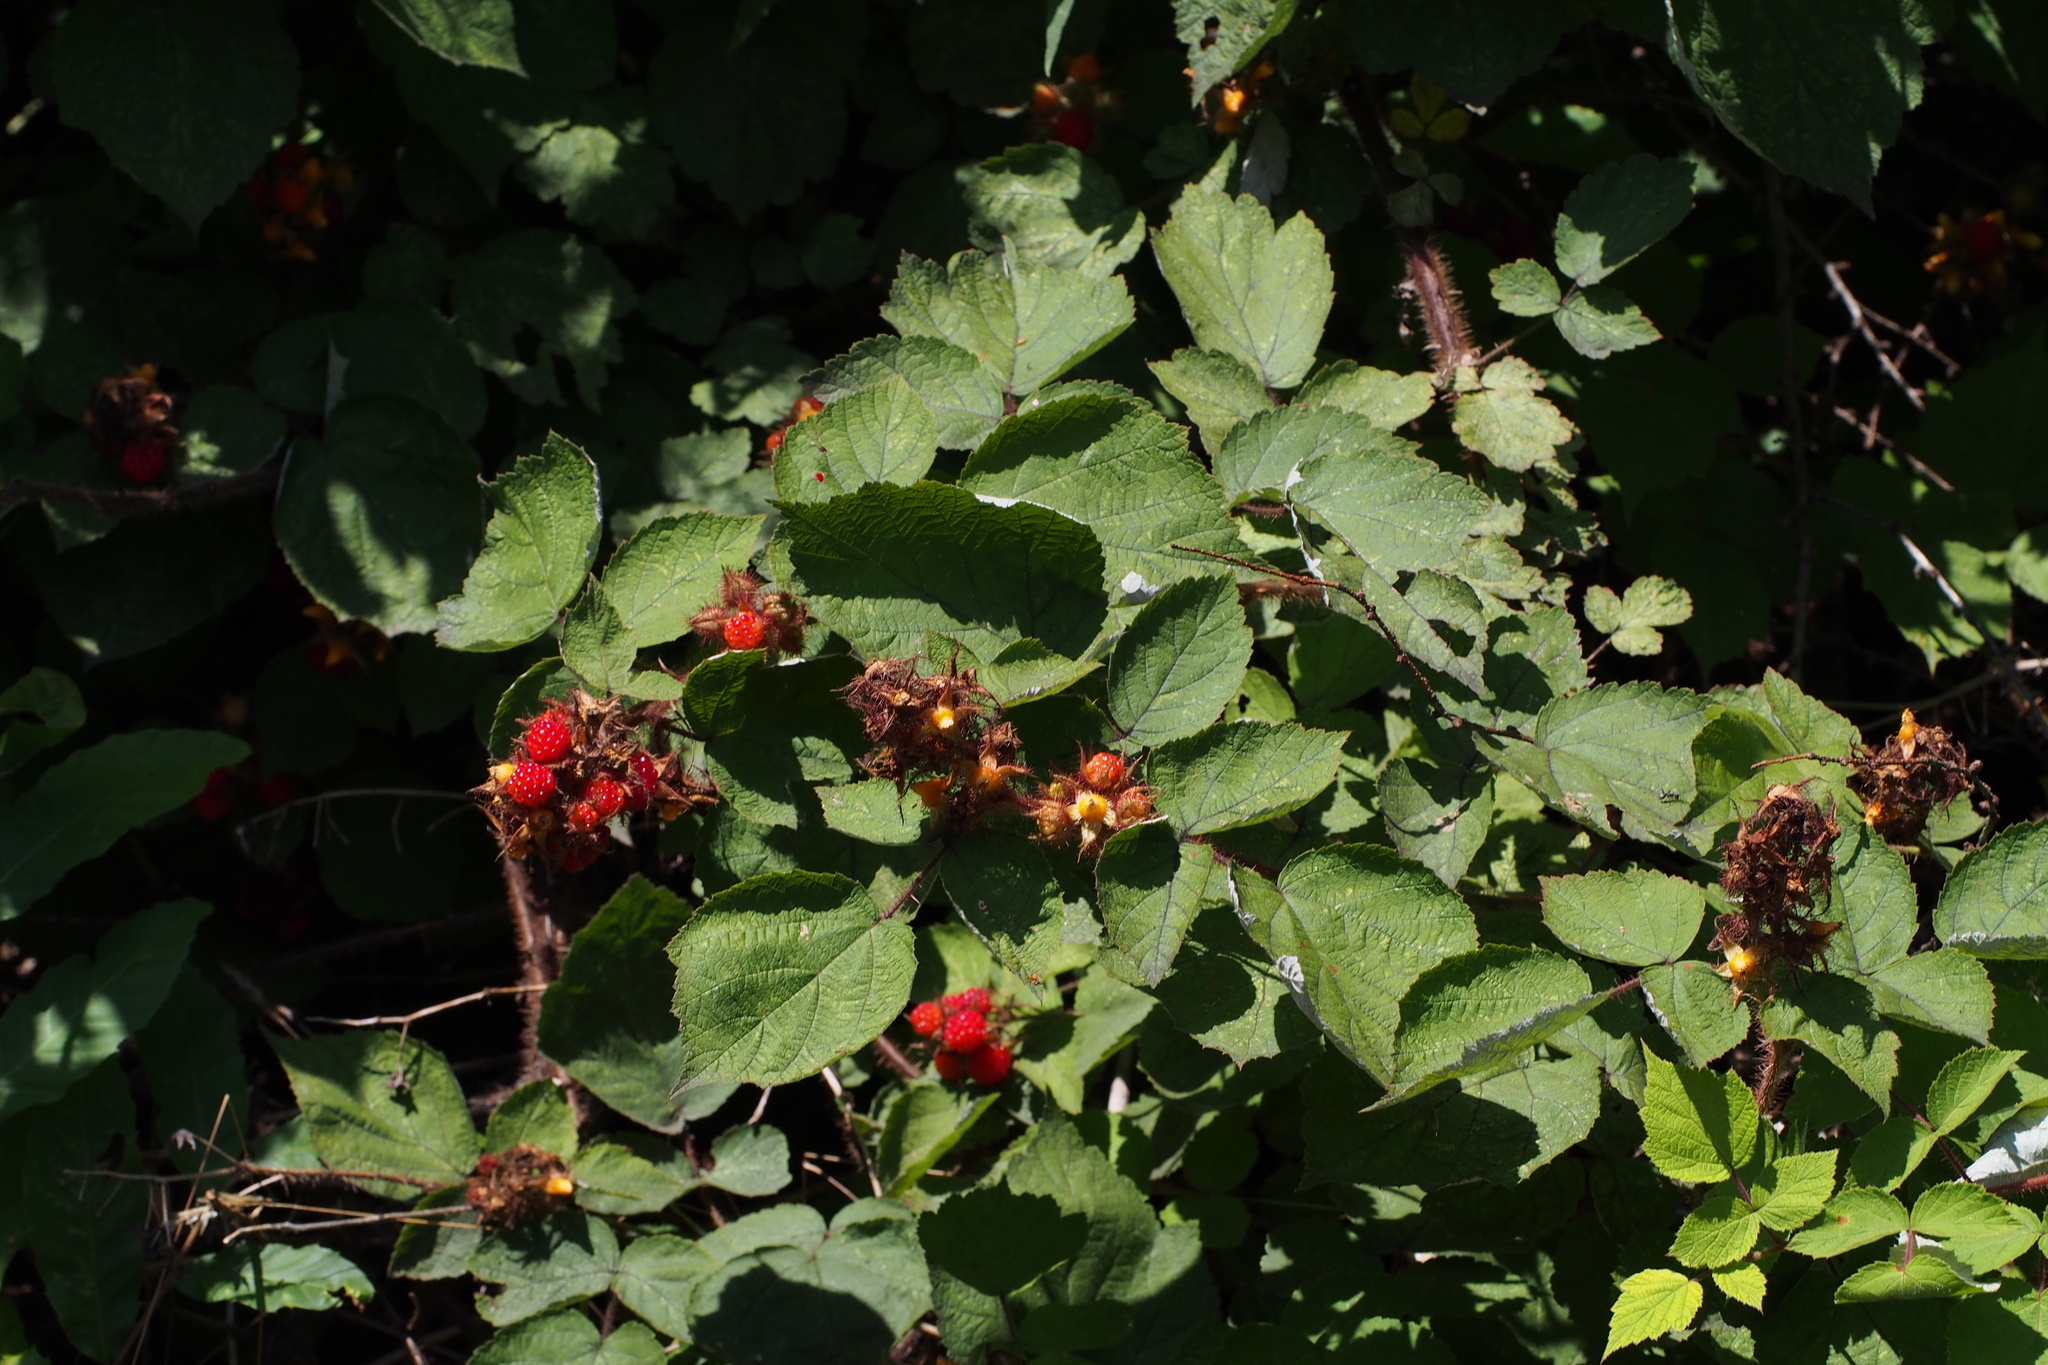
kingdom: Plantae
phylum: Tracheophyta
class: Magnoliopsida
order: Rosales
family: Rosaceae
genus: Rubus
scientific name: Rubus phoenicolasius
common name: Japanese wineberry
